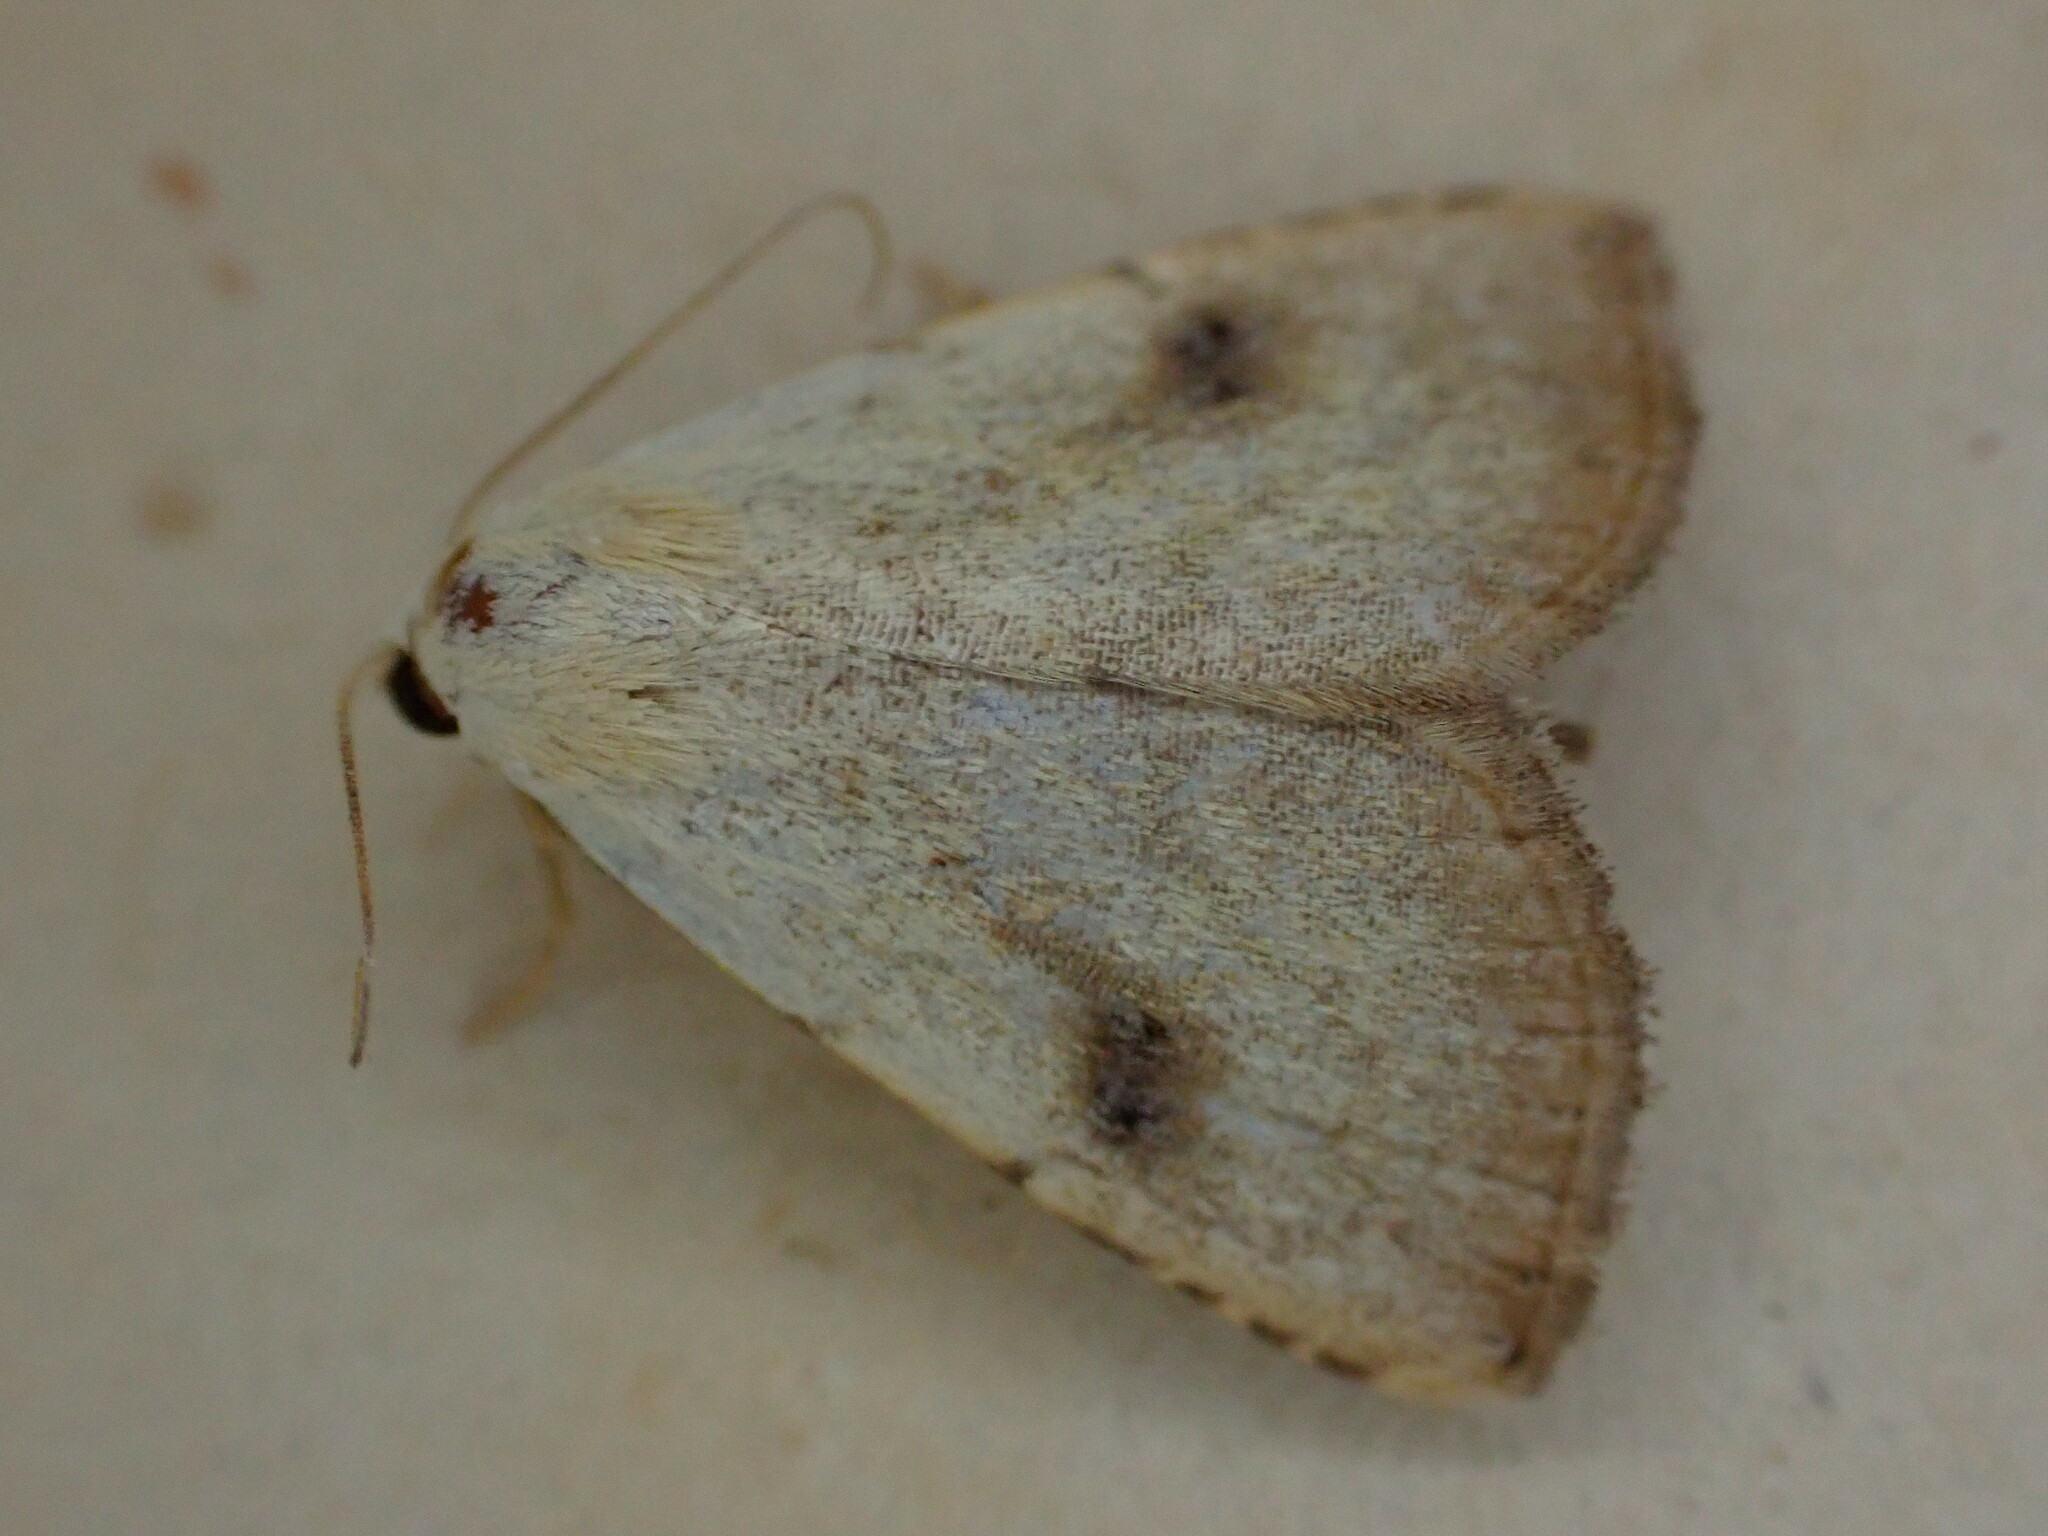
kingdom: Animalia
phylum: Arthropoda
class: Insecta
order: Lepidoptera
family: Erebidae
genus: Rivula
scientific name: Rivula sericealis
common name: Straw dot
